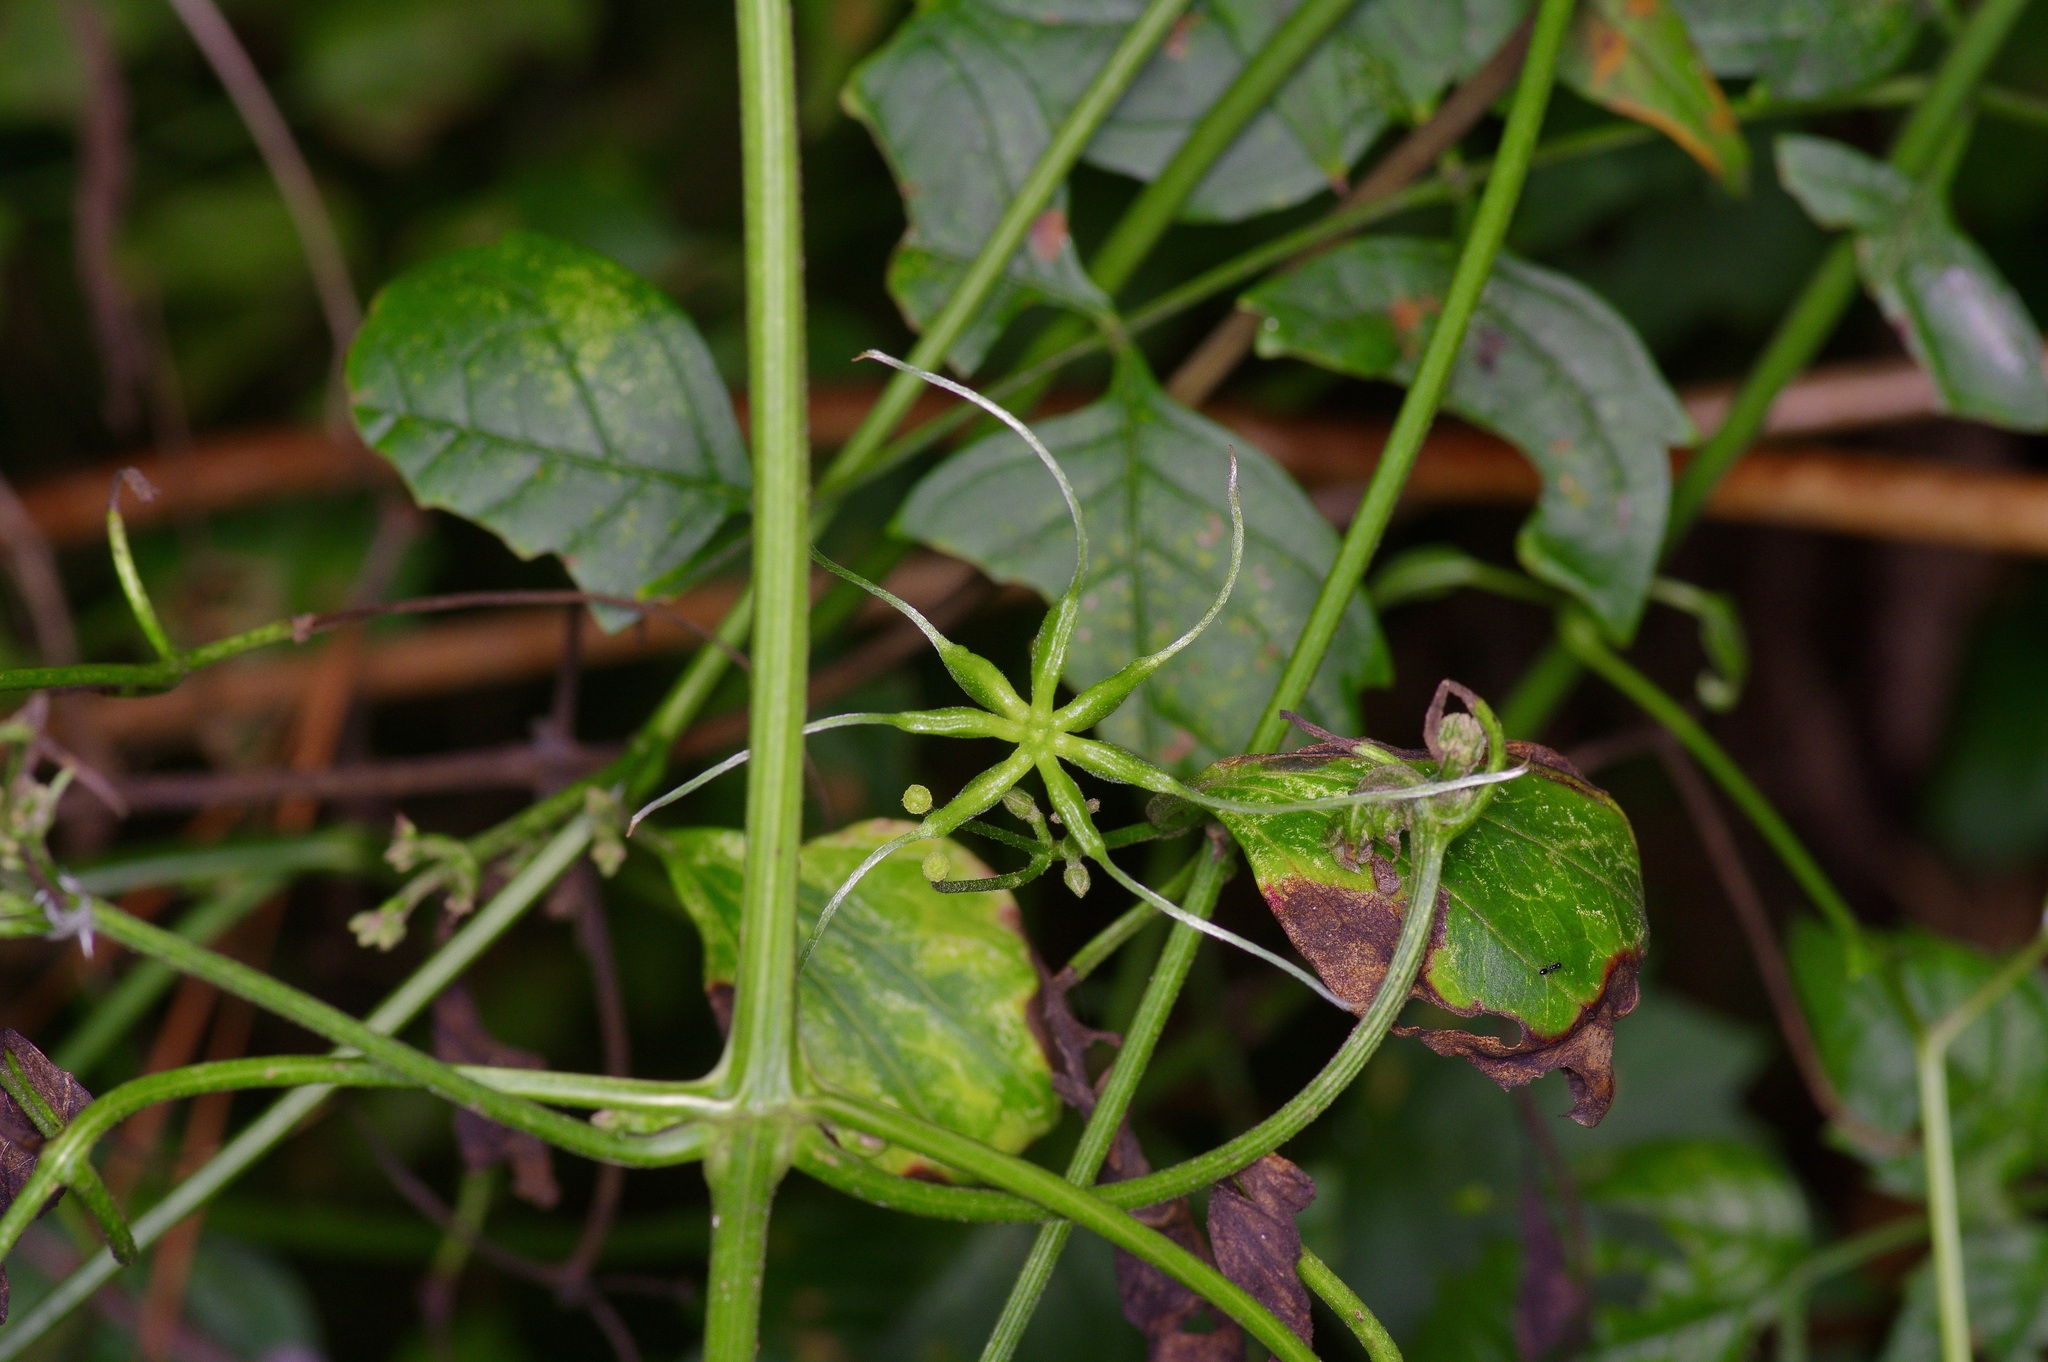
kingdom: Plantae
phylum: Tracheophyta
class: Magnoliopsida
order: Ranunculales
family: Ranunculaceae
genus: Clematis
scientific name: Clematis terniflora
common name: Sweet autumn clematis
